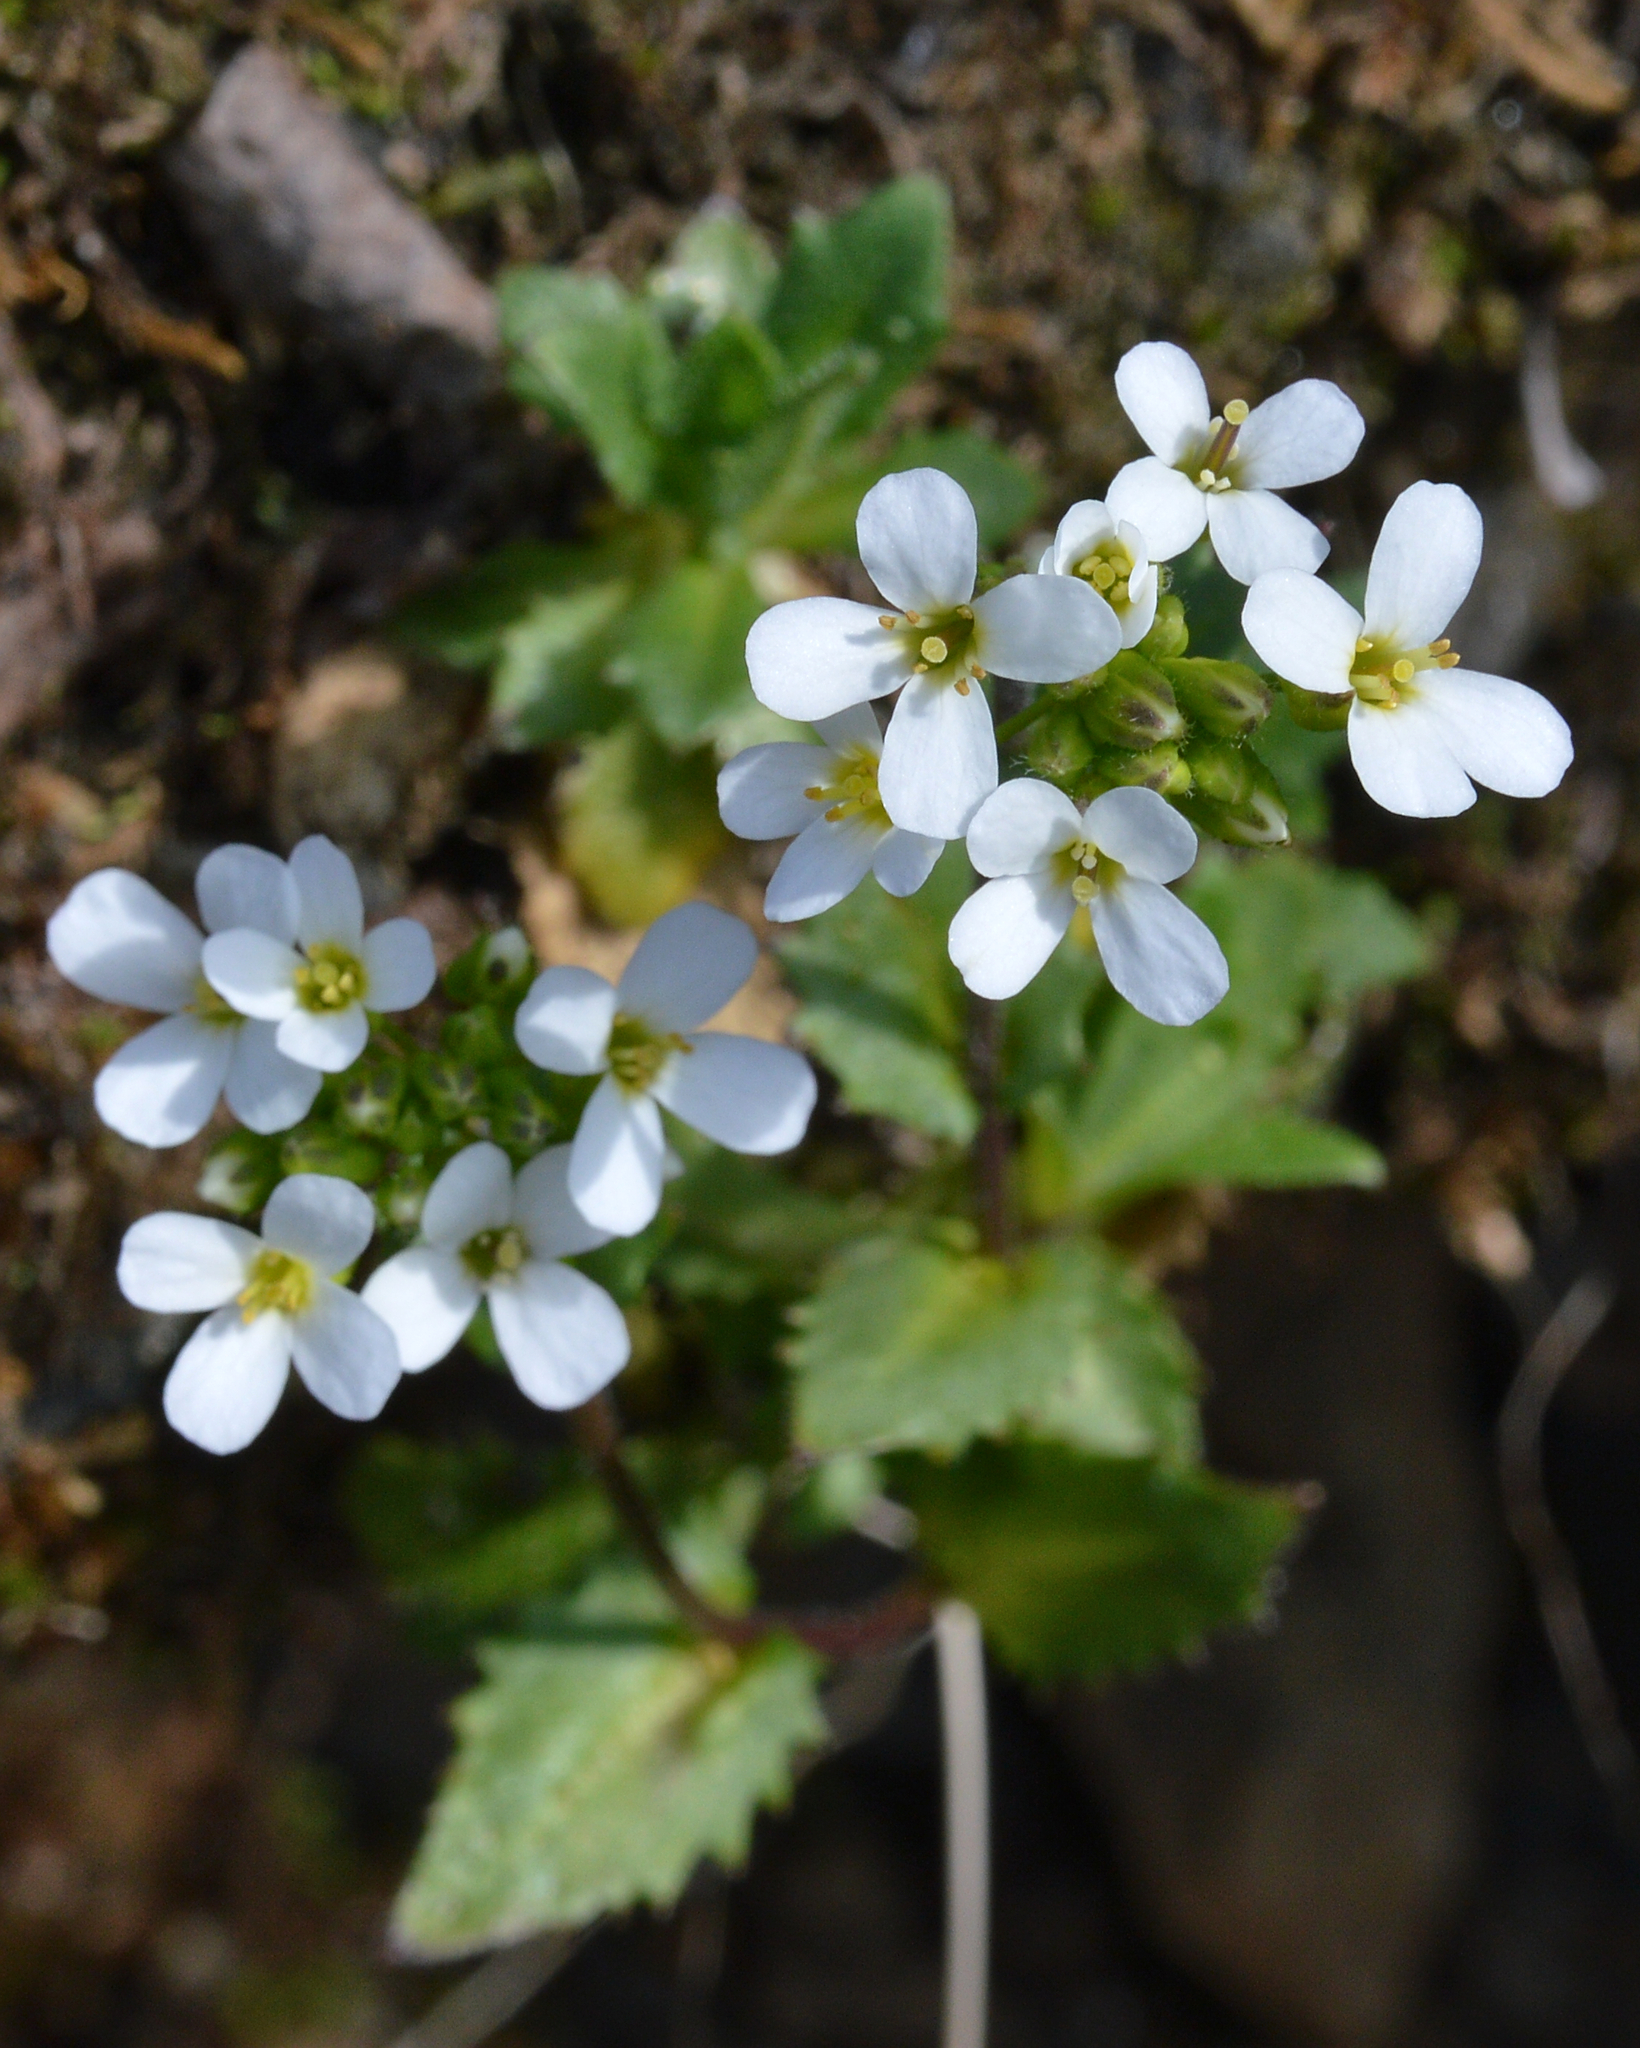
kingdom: Plantae
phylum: Tracheophyta
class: Magnoliopsida
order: Brassicales
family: Brassicaceae
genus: Arabis
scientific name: Arabis alpina
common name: Alpine rock-cress
